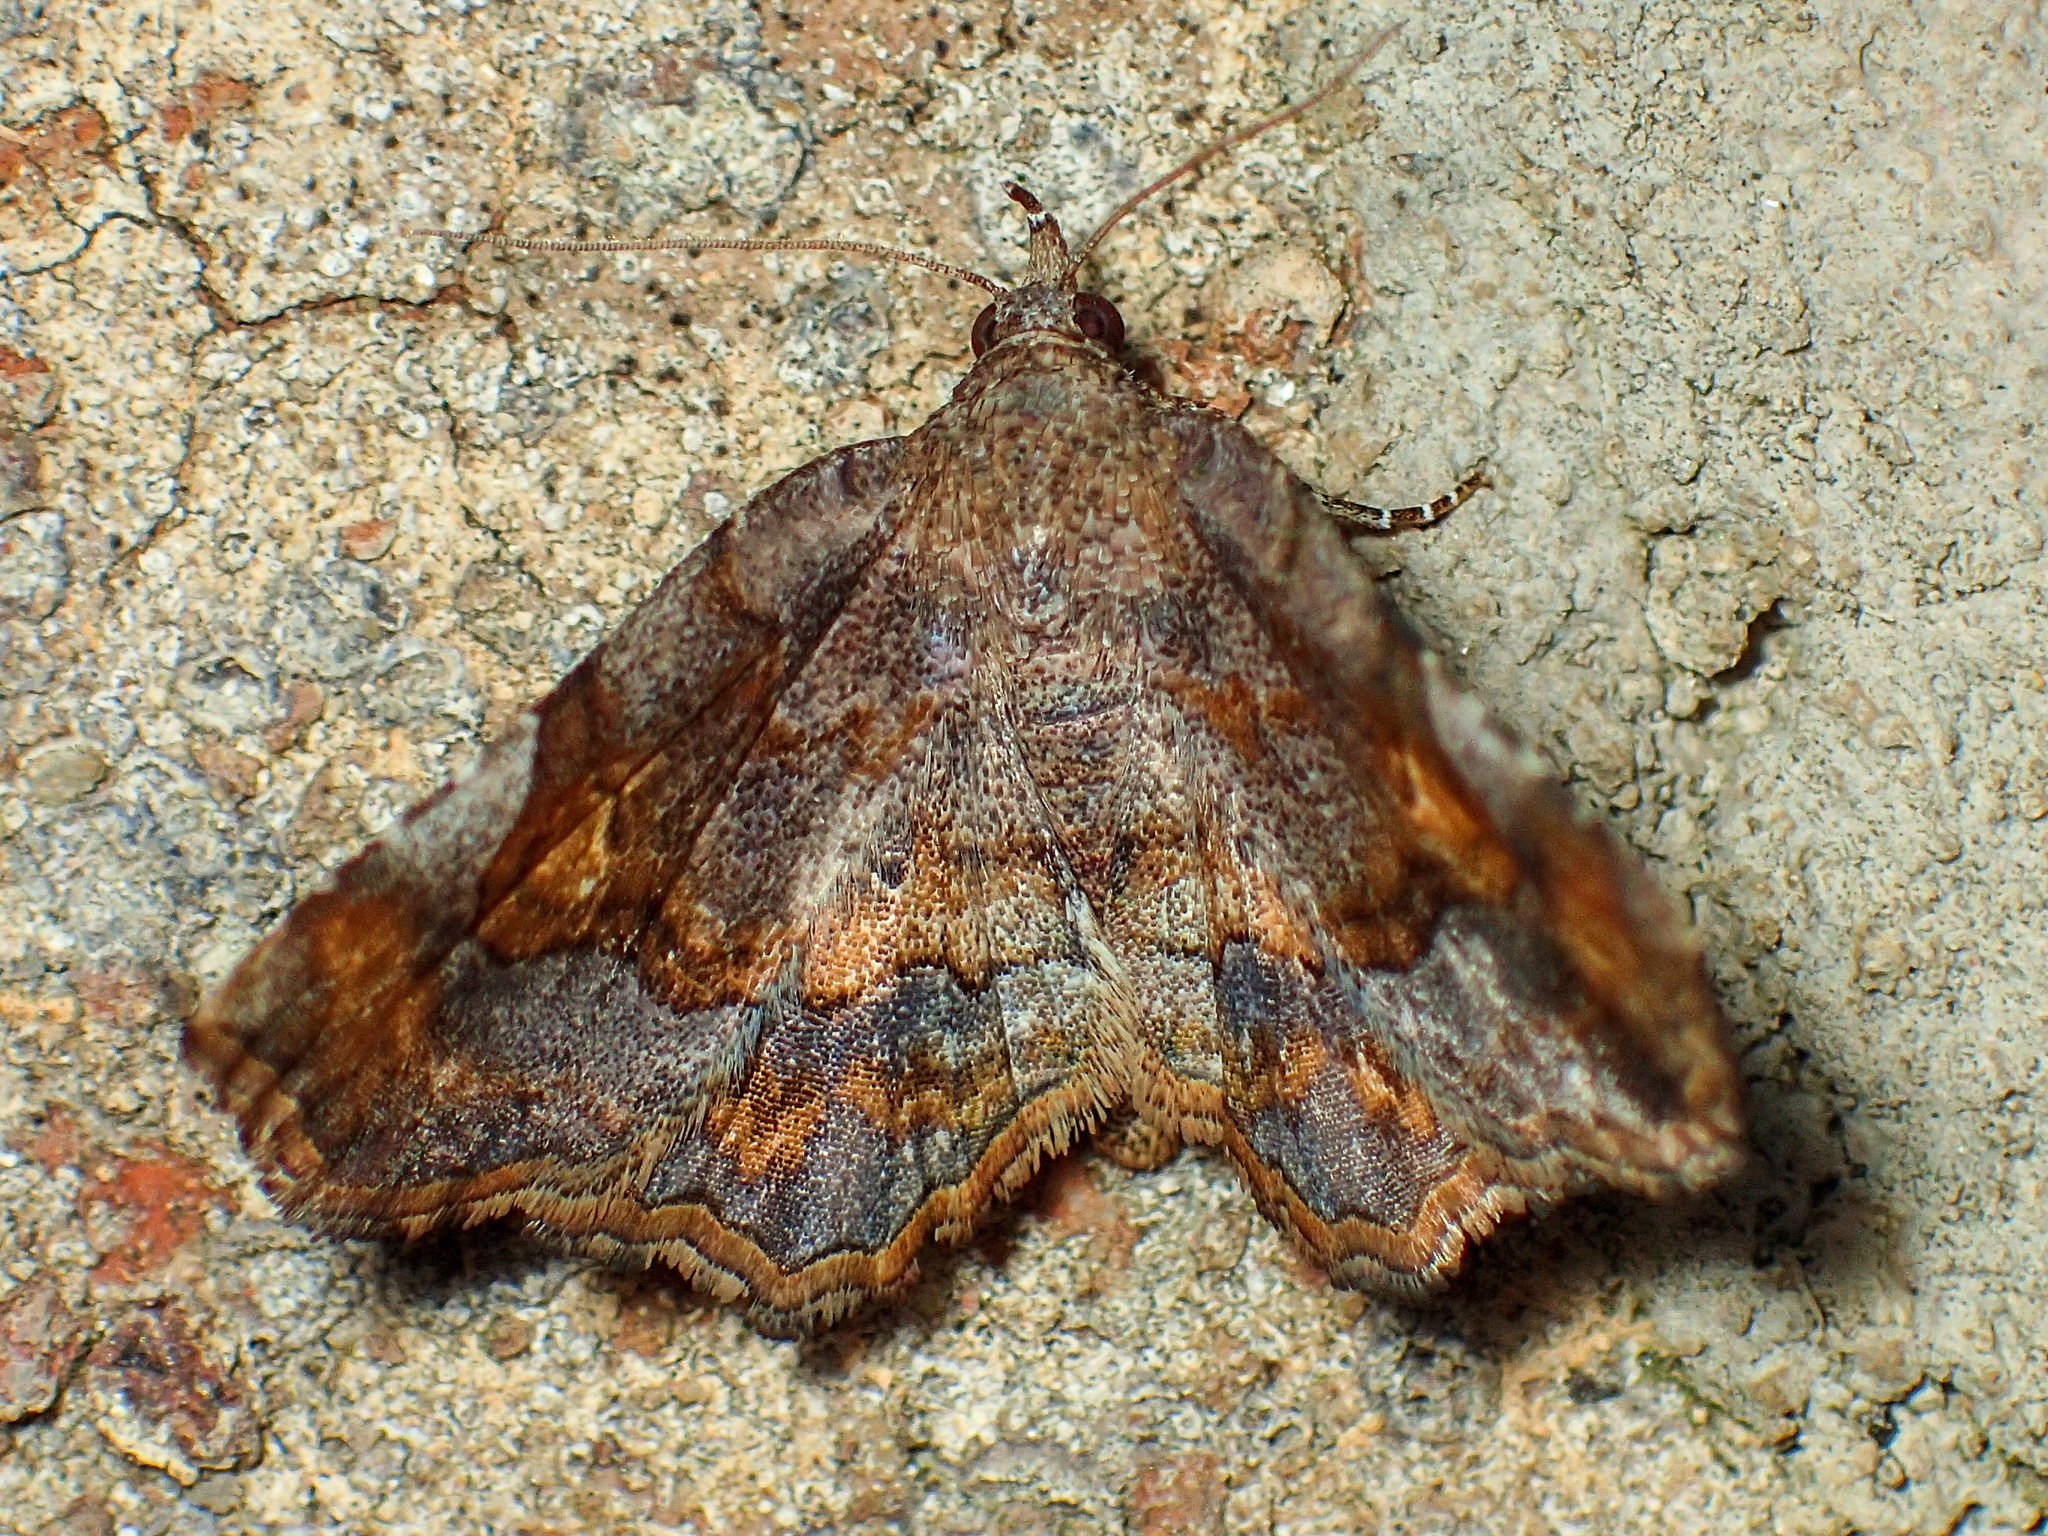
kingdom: Animalia
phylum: Arthropoda
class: Insecta
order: Lepidoptera
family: Erebidae
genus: Pangrapta
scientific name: Pangrapta decoralis
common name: Decorated owlet
